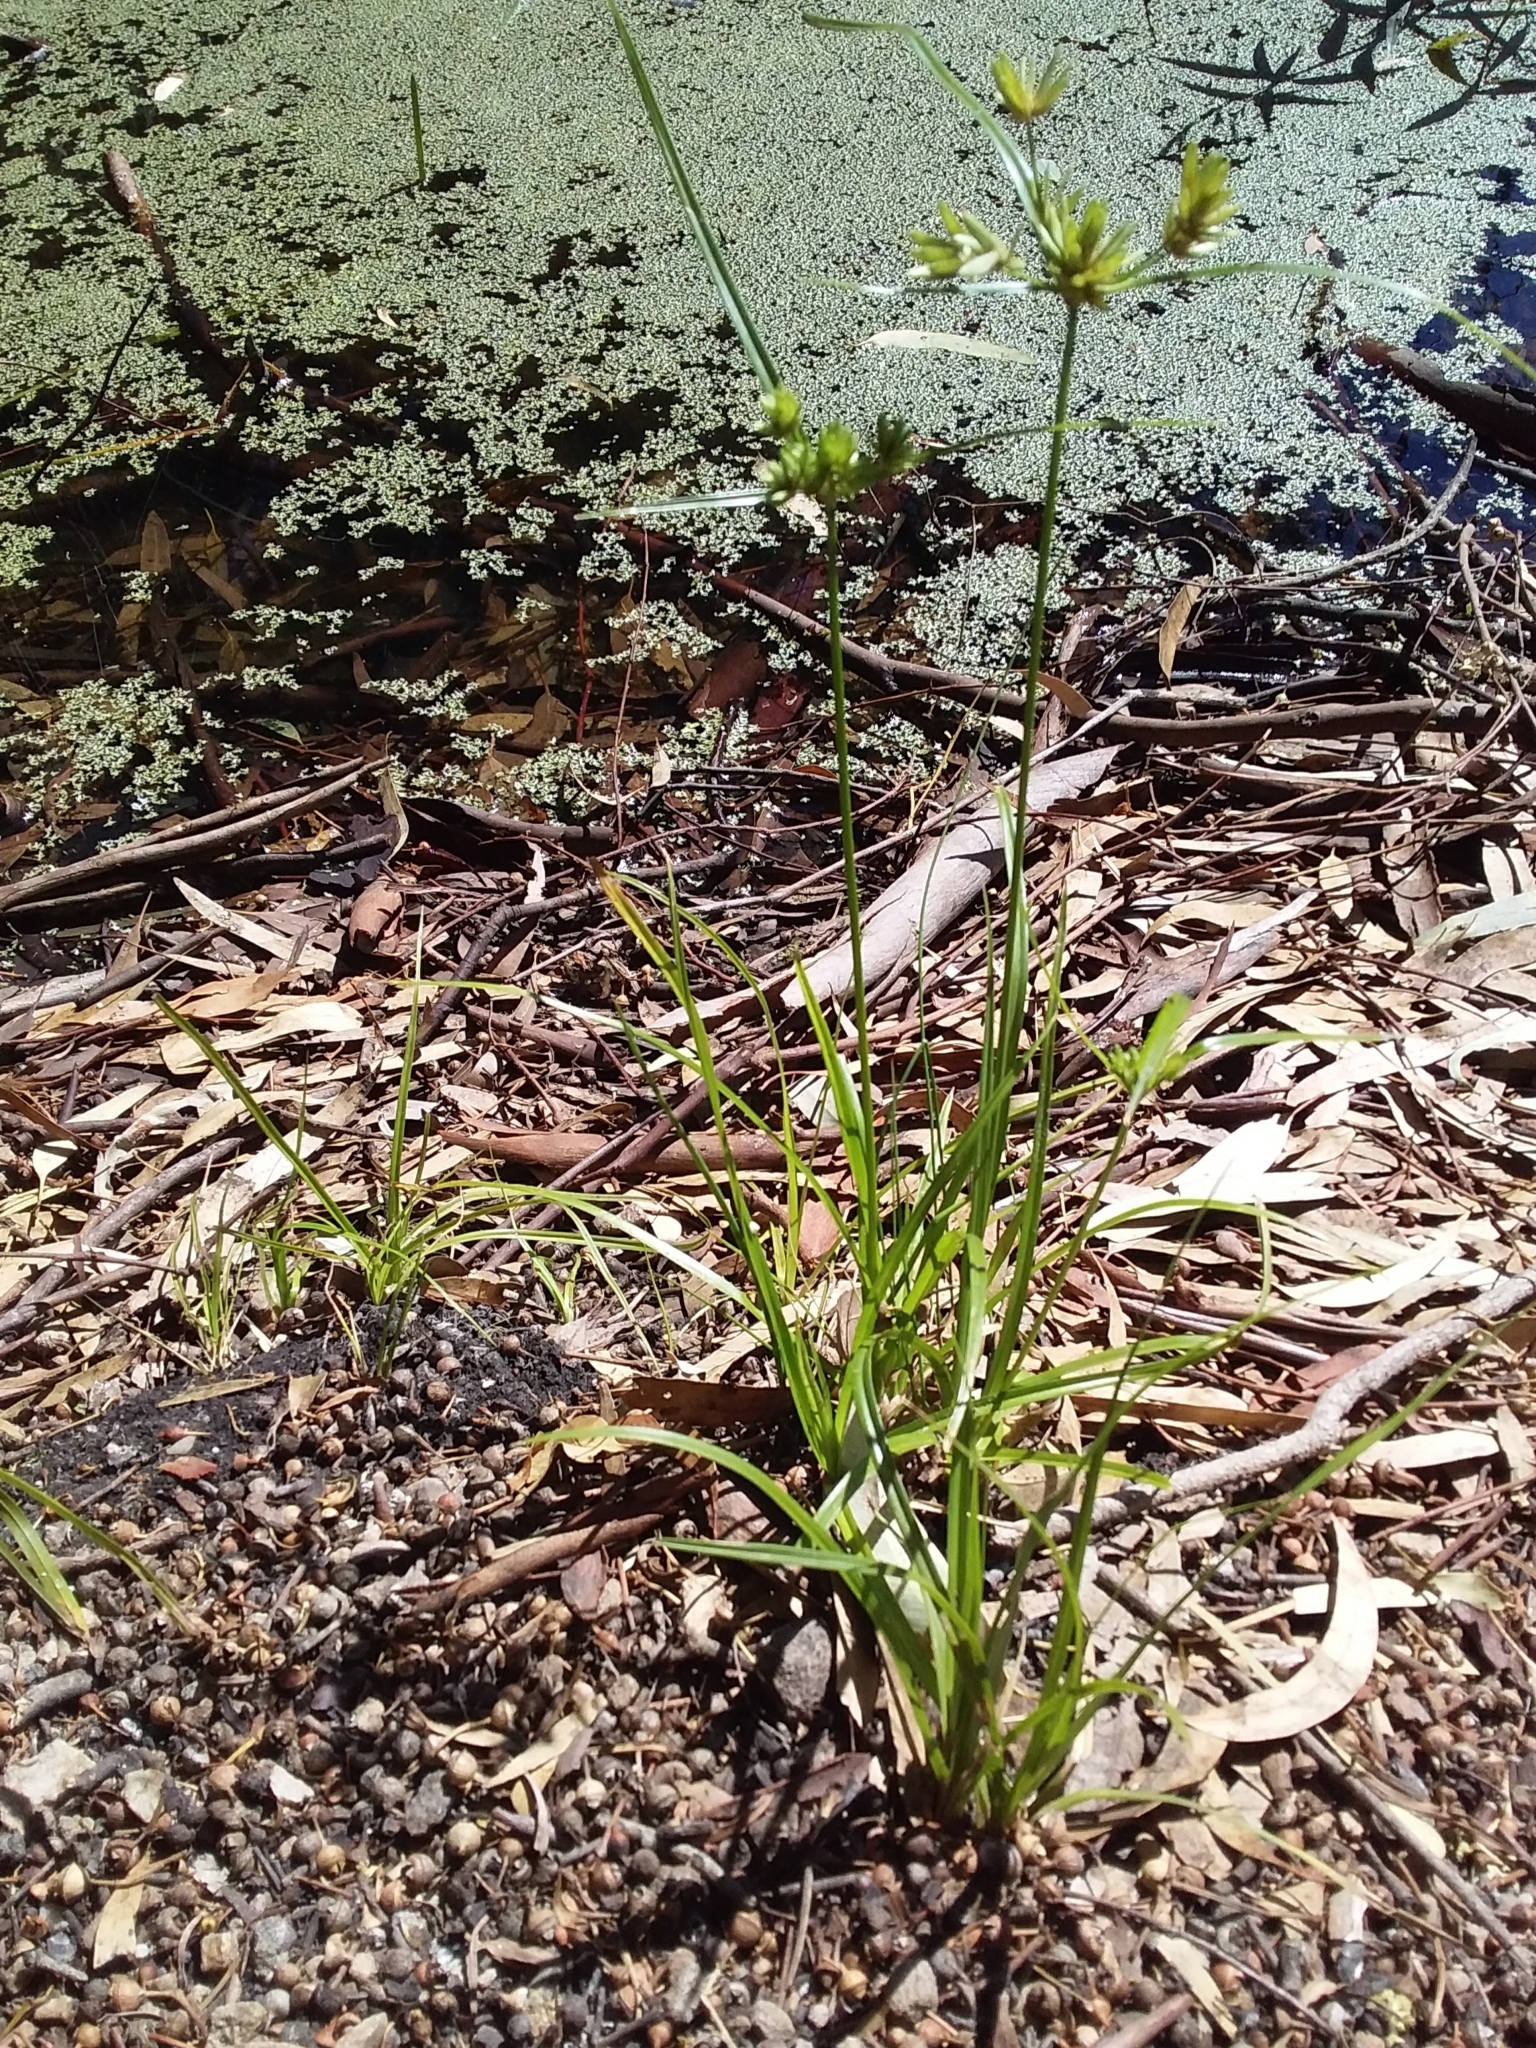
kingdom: Plantae
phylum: Tracheophyta
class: Liliopsida
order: Poales
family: Cyperaceae
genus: Cyperus
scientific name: Cyperus eragrostis
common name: Tall flatsedge
